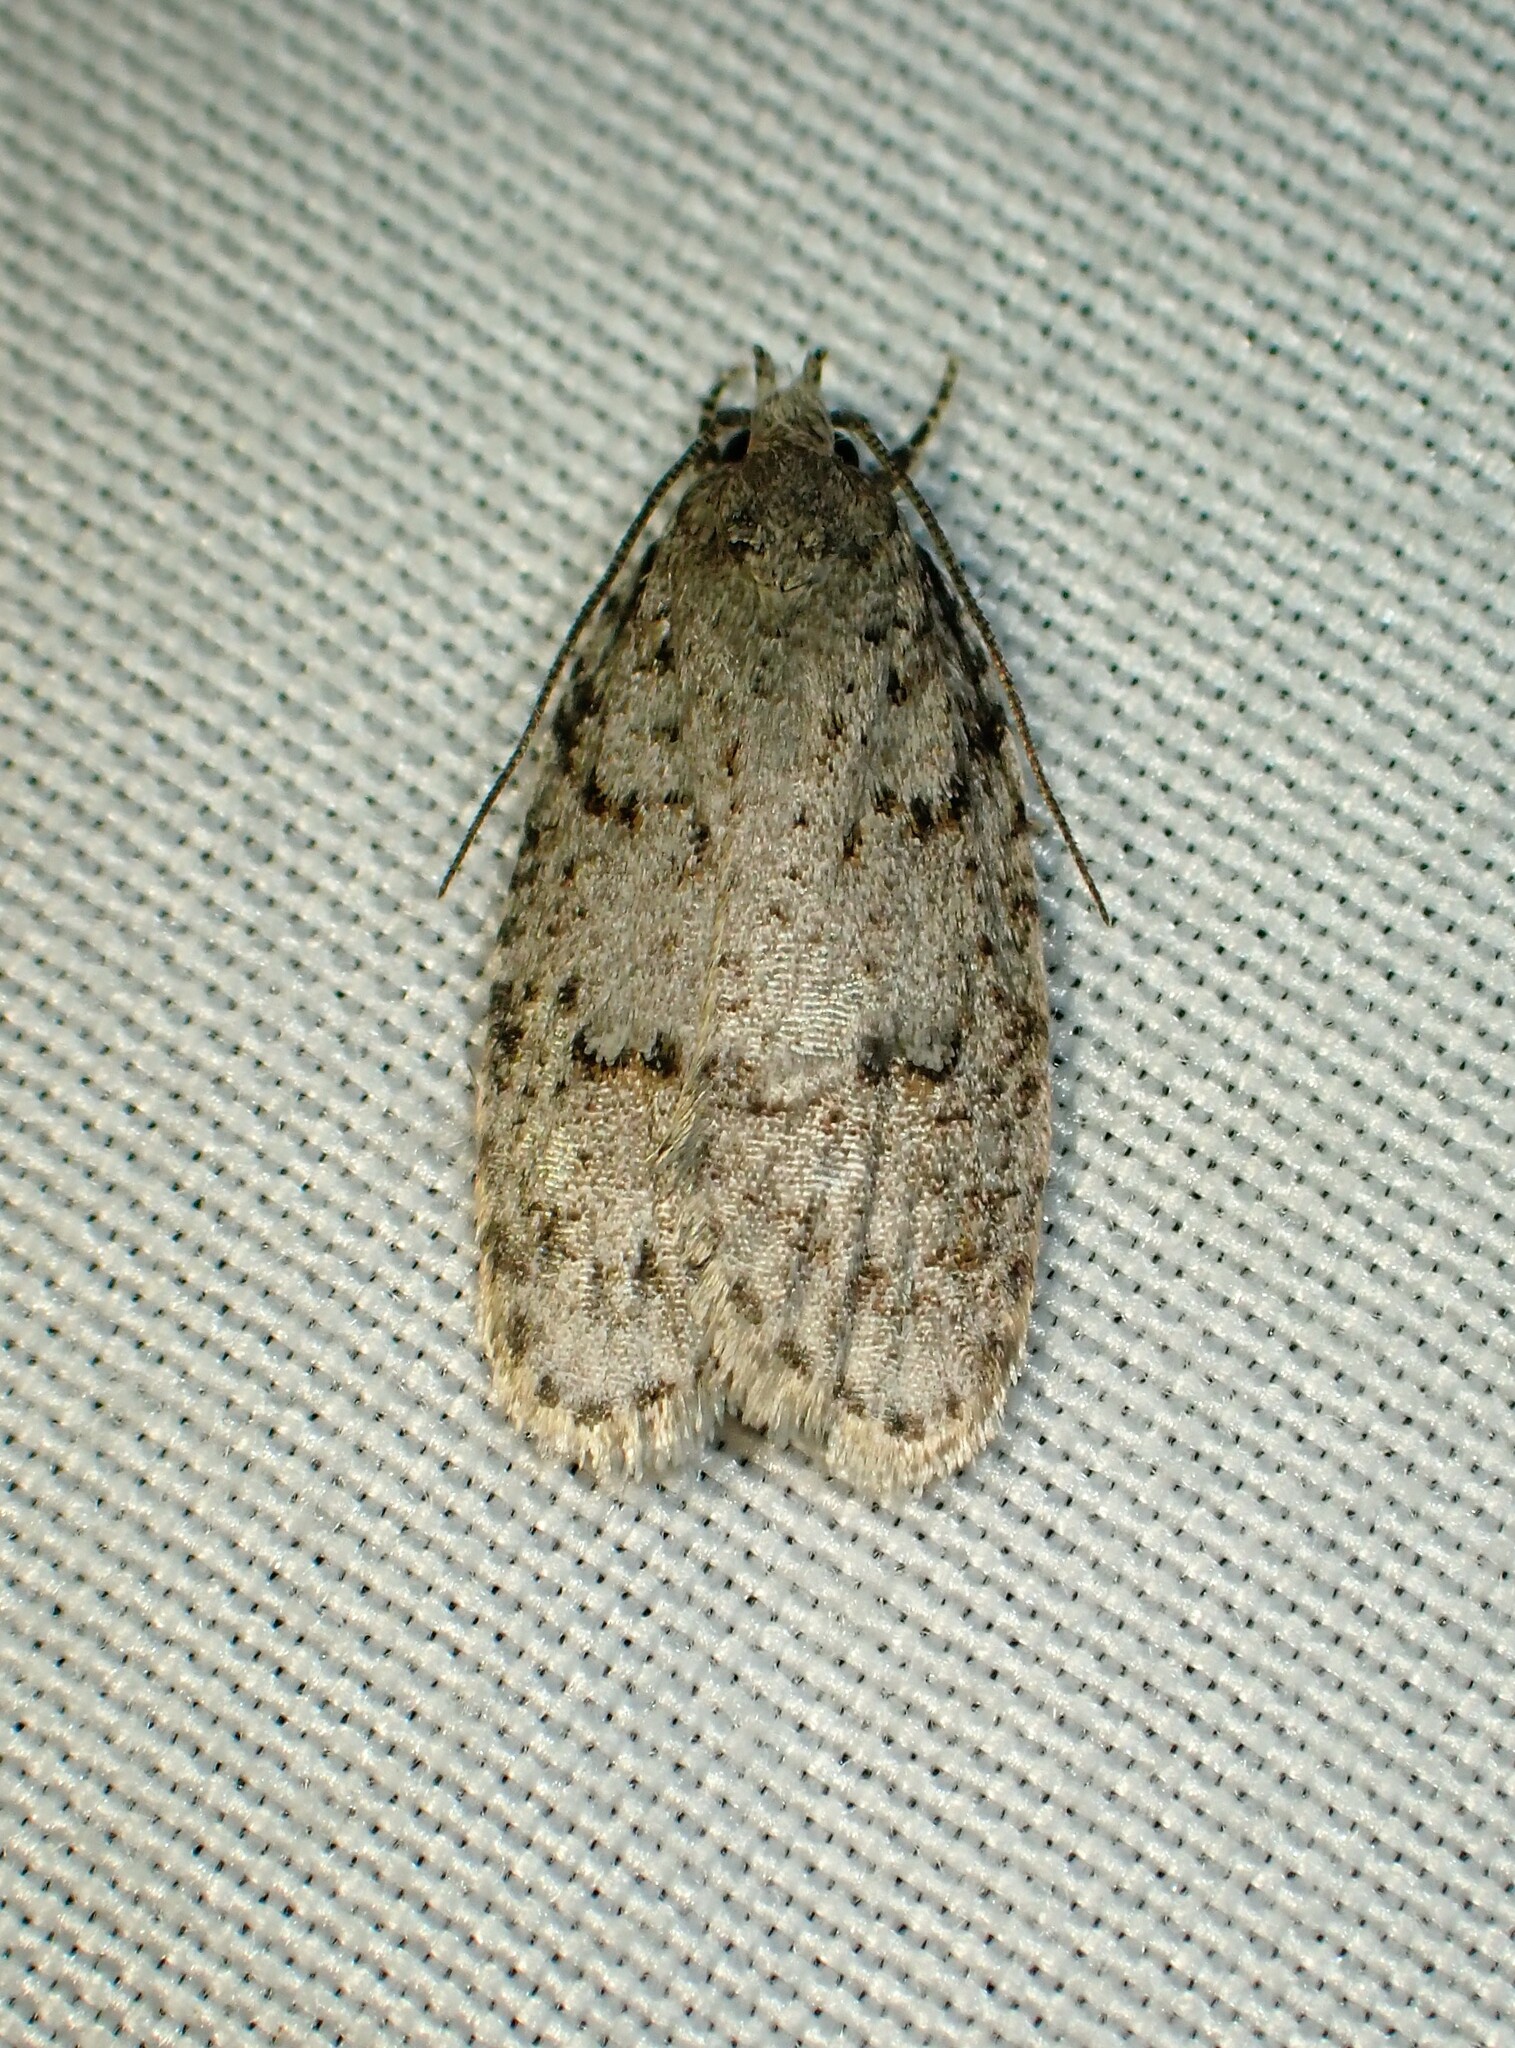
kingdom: Animalia
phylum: Arthropoda
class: Insecta
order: Lepidoptera
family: Depressariidae
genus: Bibarrambla
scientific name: Bibarrambla allenella
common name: Bog bibarrambla moth
